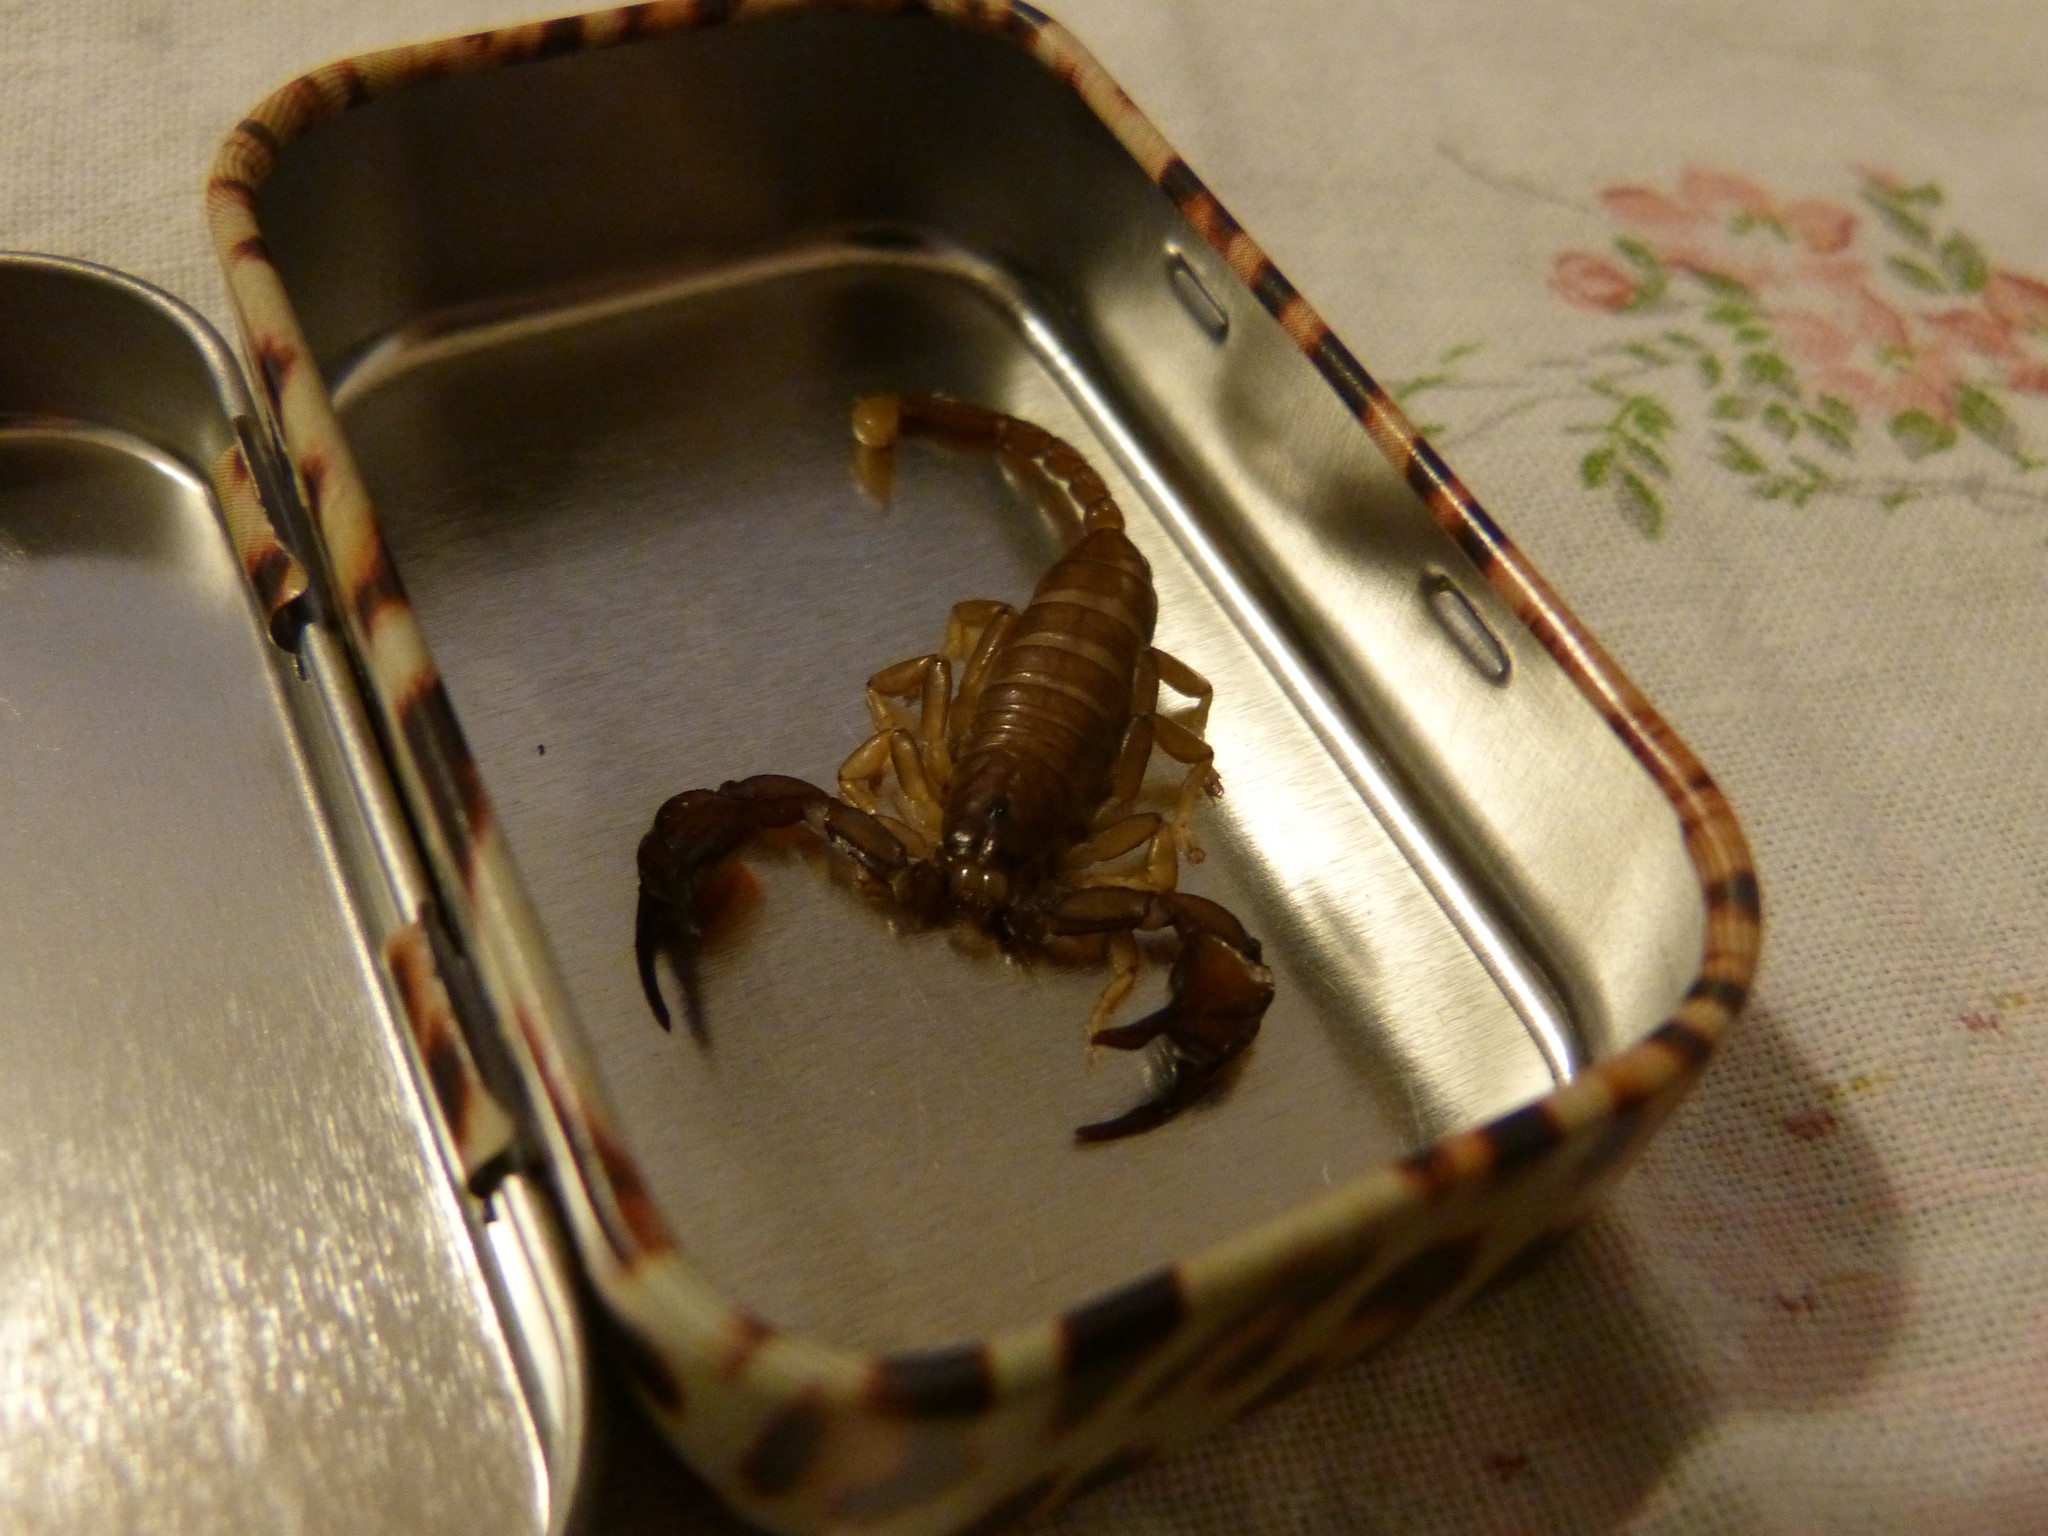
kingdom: Animalia
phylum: Arthropoda
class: Arachnida
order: Scorpiones
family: Euscorpiidae
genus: Euscorpius
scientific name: Euscorpius garganicus
